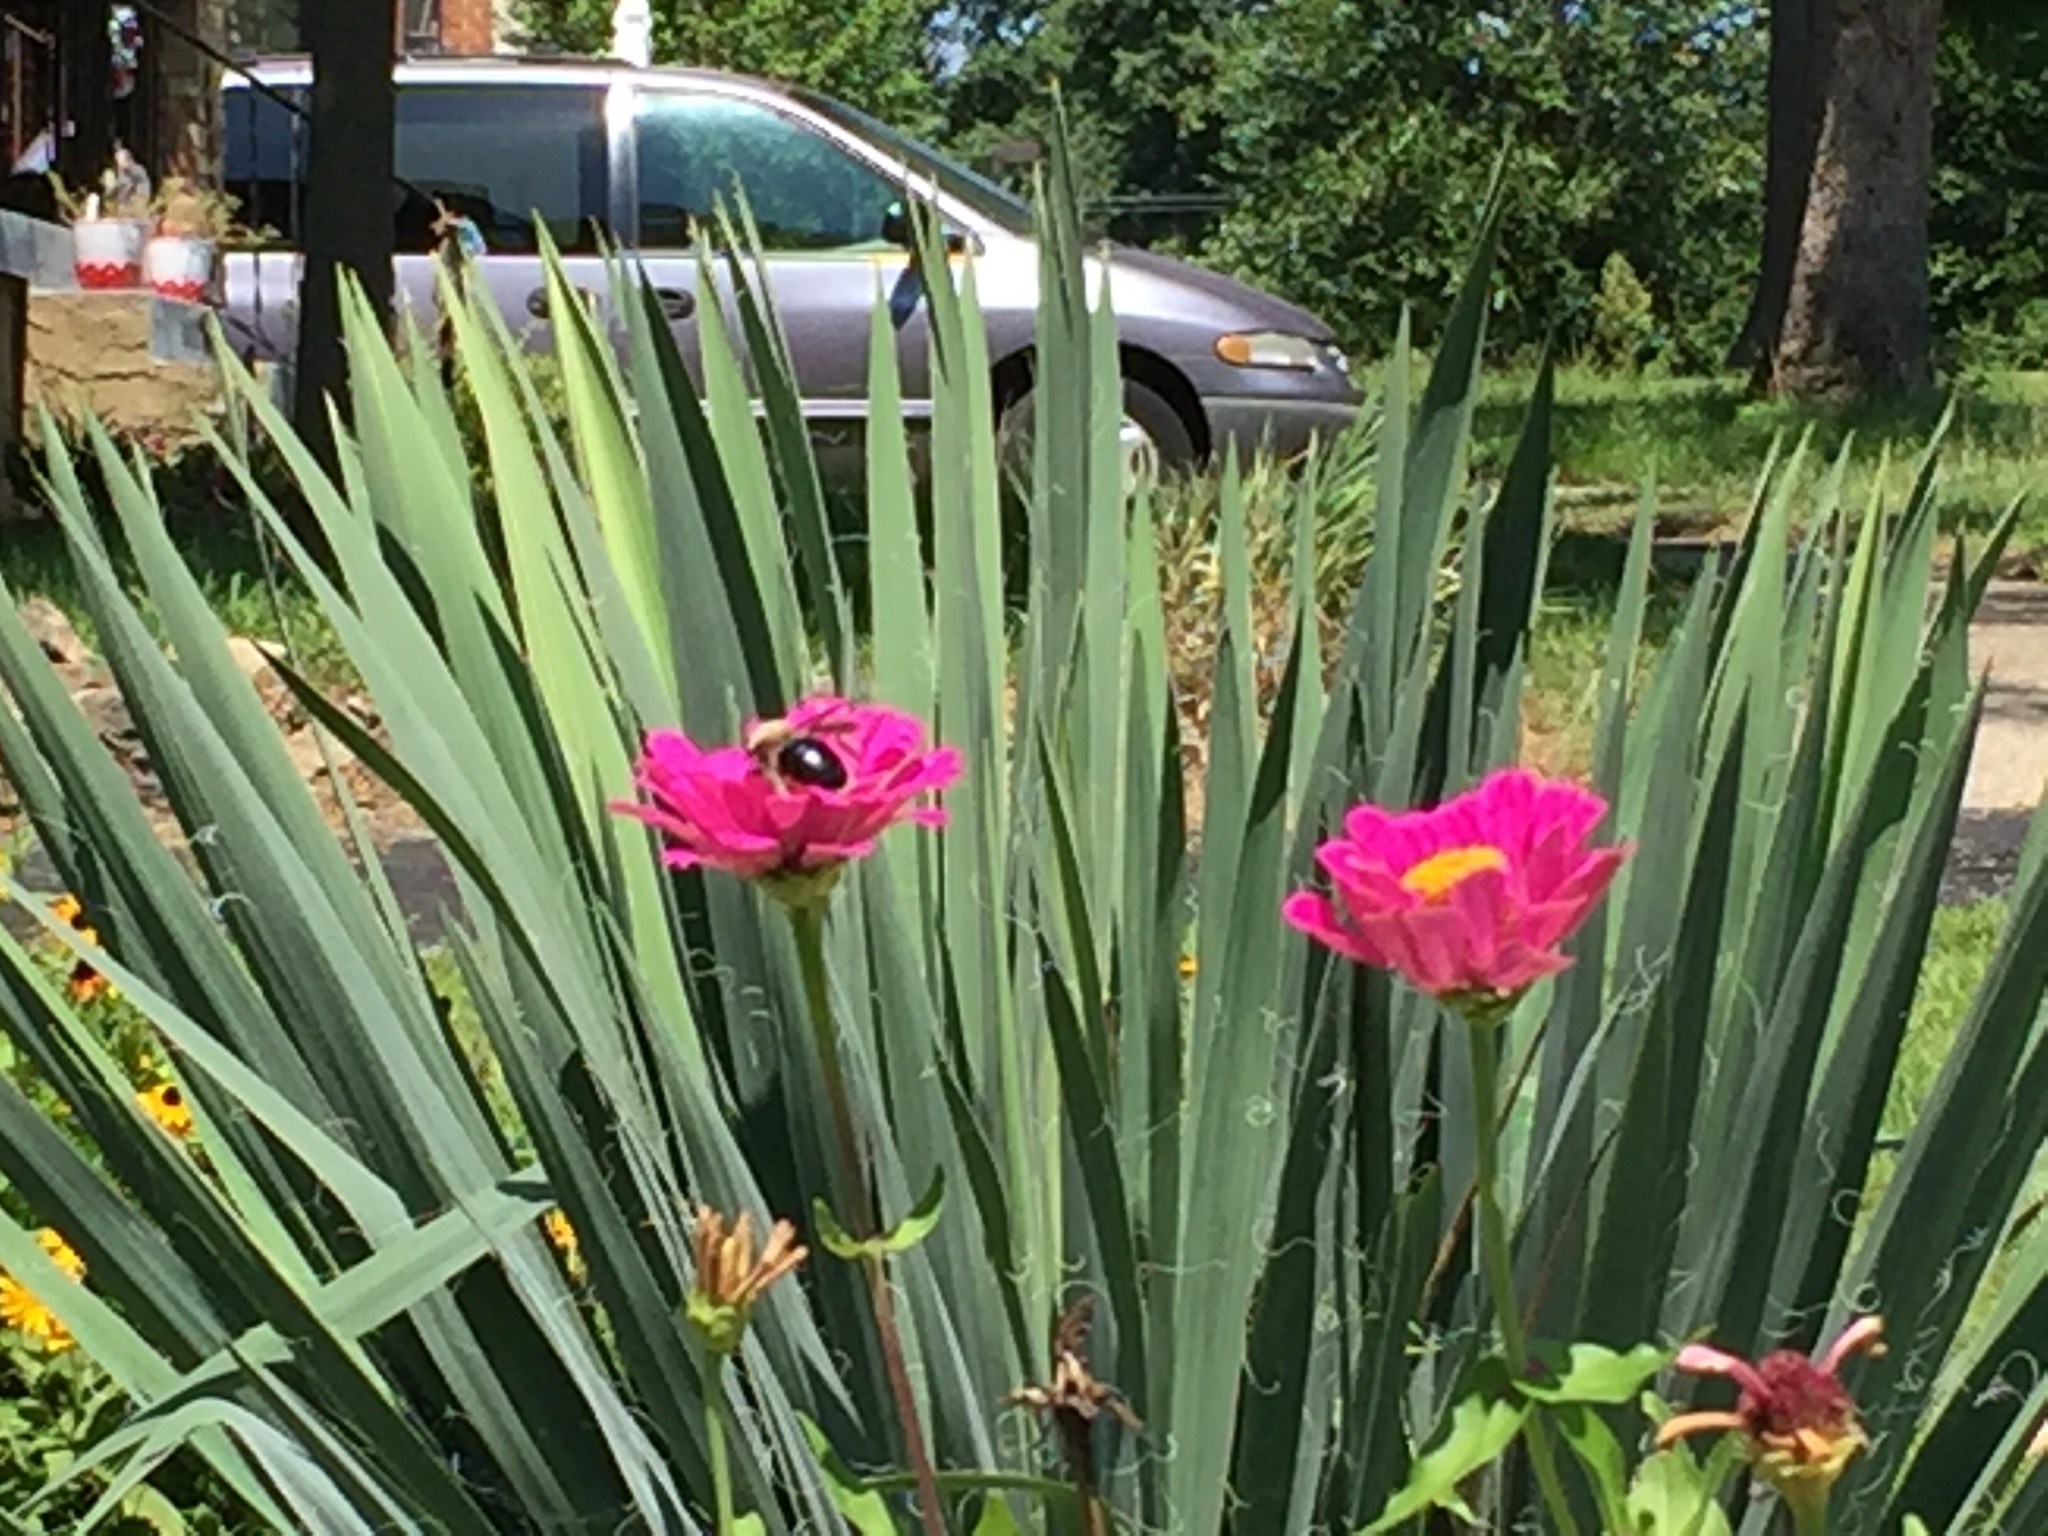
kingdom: Animalia
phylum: Arthropoda
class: Insecta
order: Hymenoptera
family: Apidae
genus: Xylocopa
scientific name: Xylocopa virginica
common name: Carpenter bee
